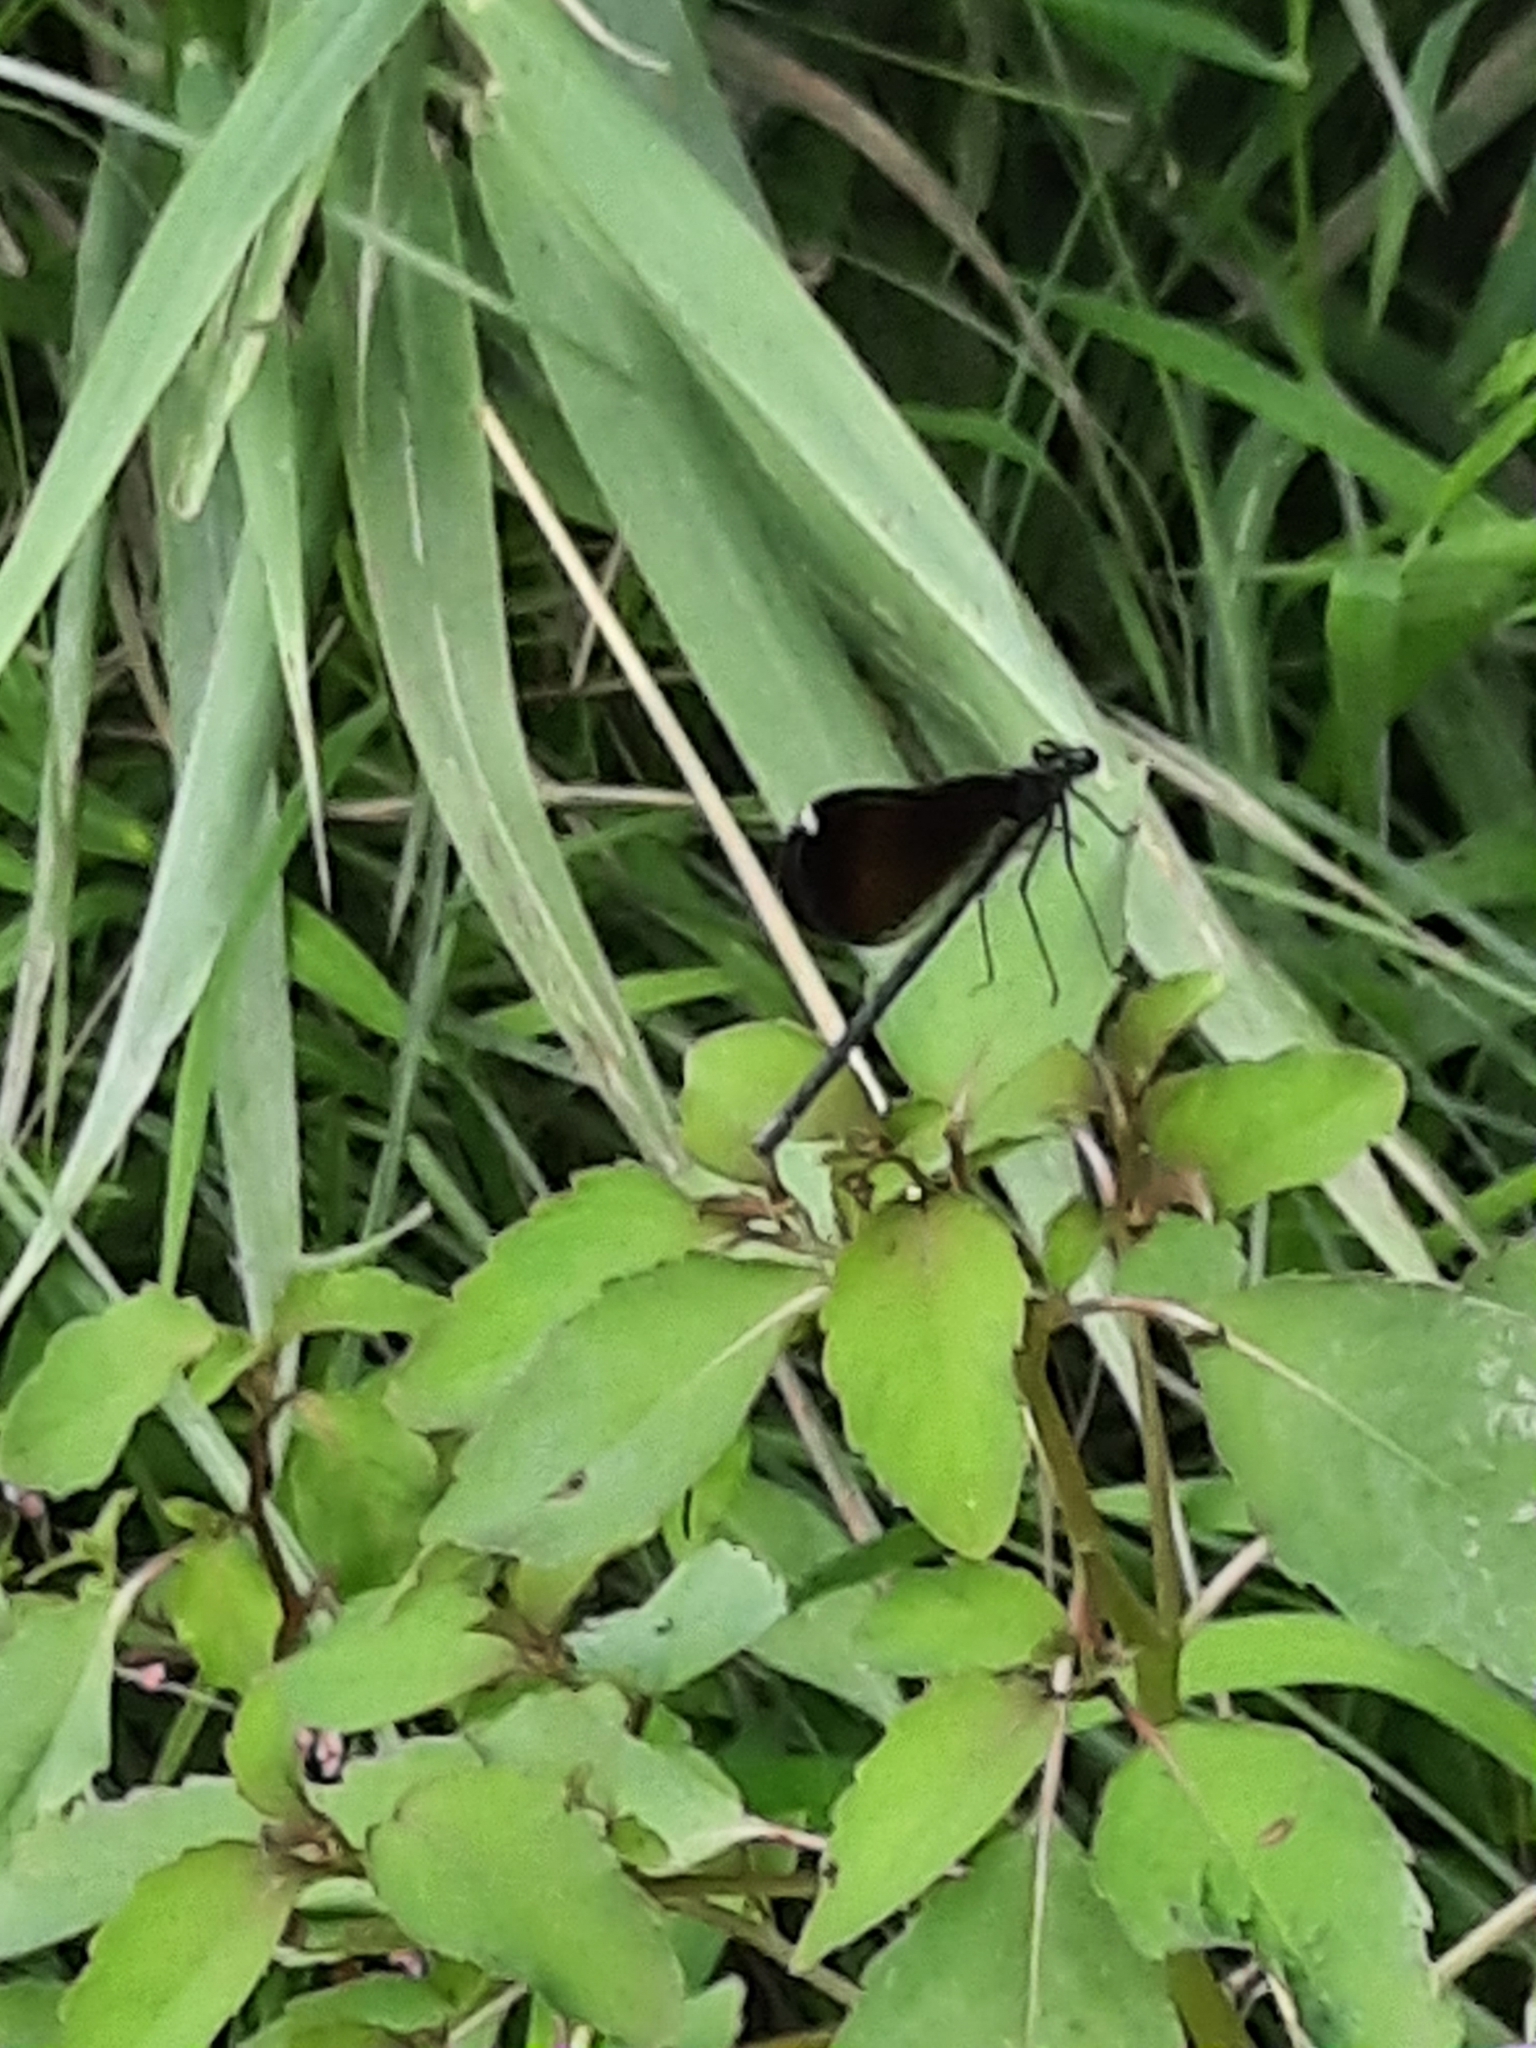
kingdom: Animalia
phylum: Arthropoda
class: Insecta
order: Odonata
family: Calopterygidae
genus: Calopteryx
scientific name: Calopteryx maculata
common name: Ebony jewelwing
